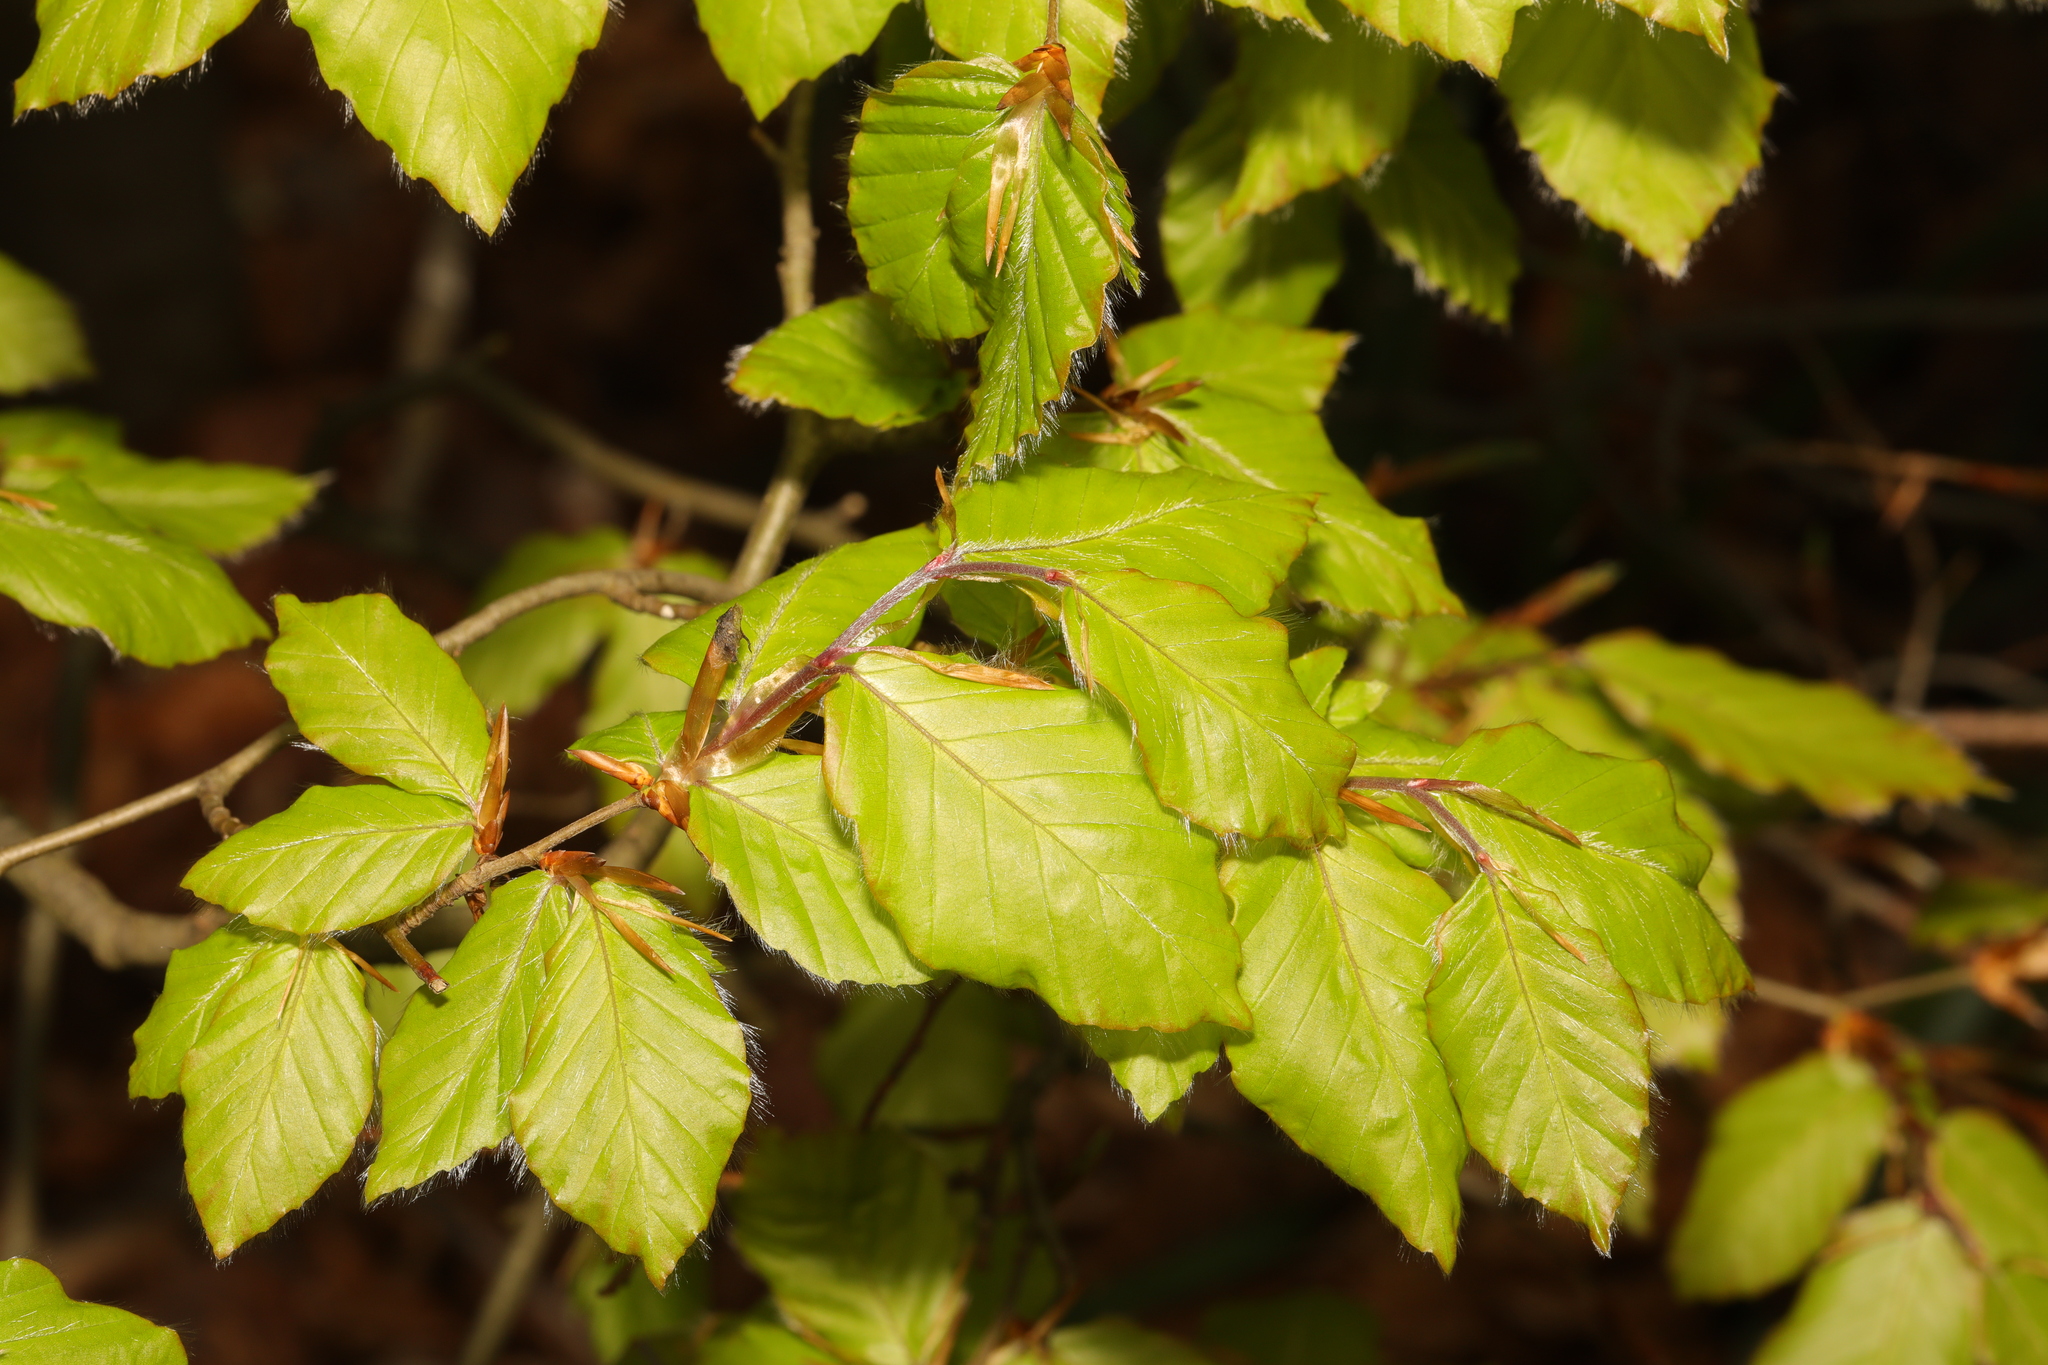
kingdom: Plantae
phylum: Tracheophyta
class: Magnoliopsida
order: Fagales
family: Fagaceae
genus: Fagus
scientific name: Fagus sylvatica
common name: Beech
